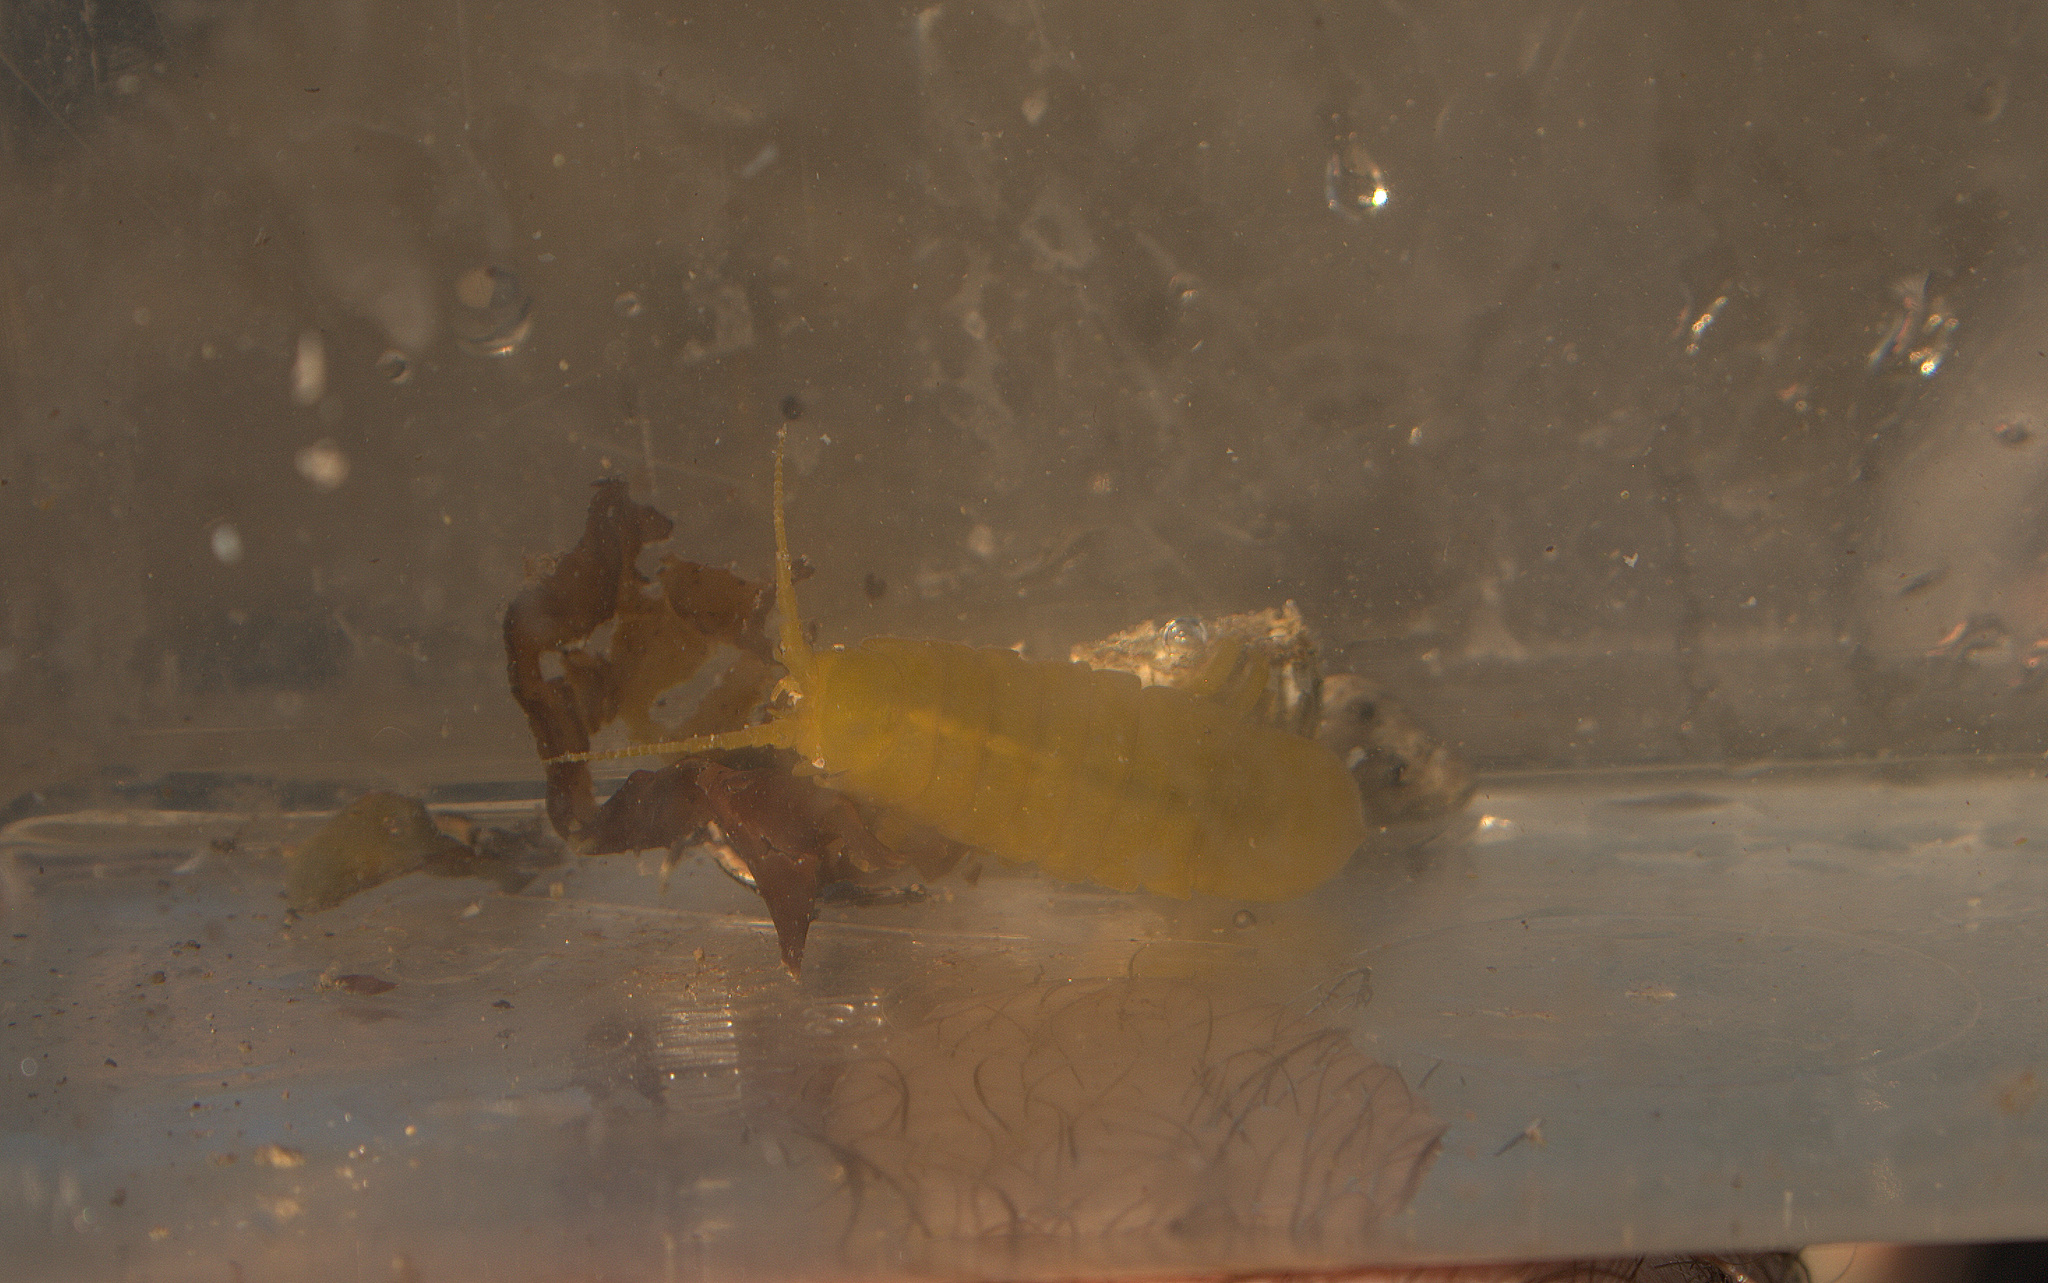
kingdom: Animalia
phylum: Arthropoda
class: Malacostraca
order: Isopoda
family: Idoteidae
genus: Pentidotea
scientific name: Pentidotea wosnesenskii
